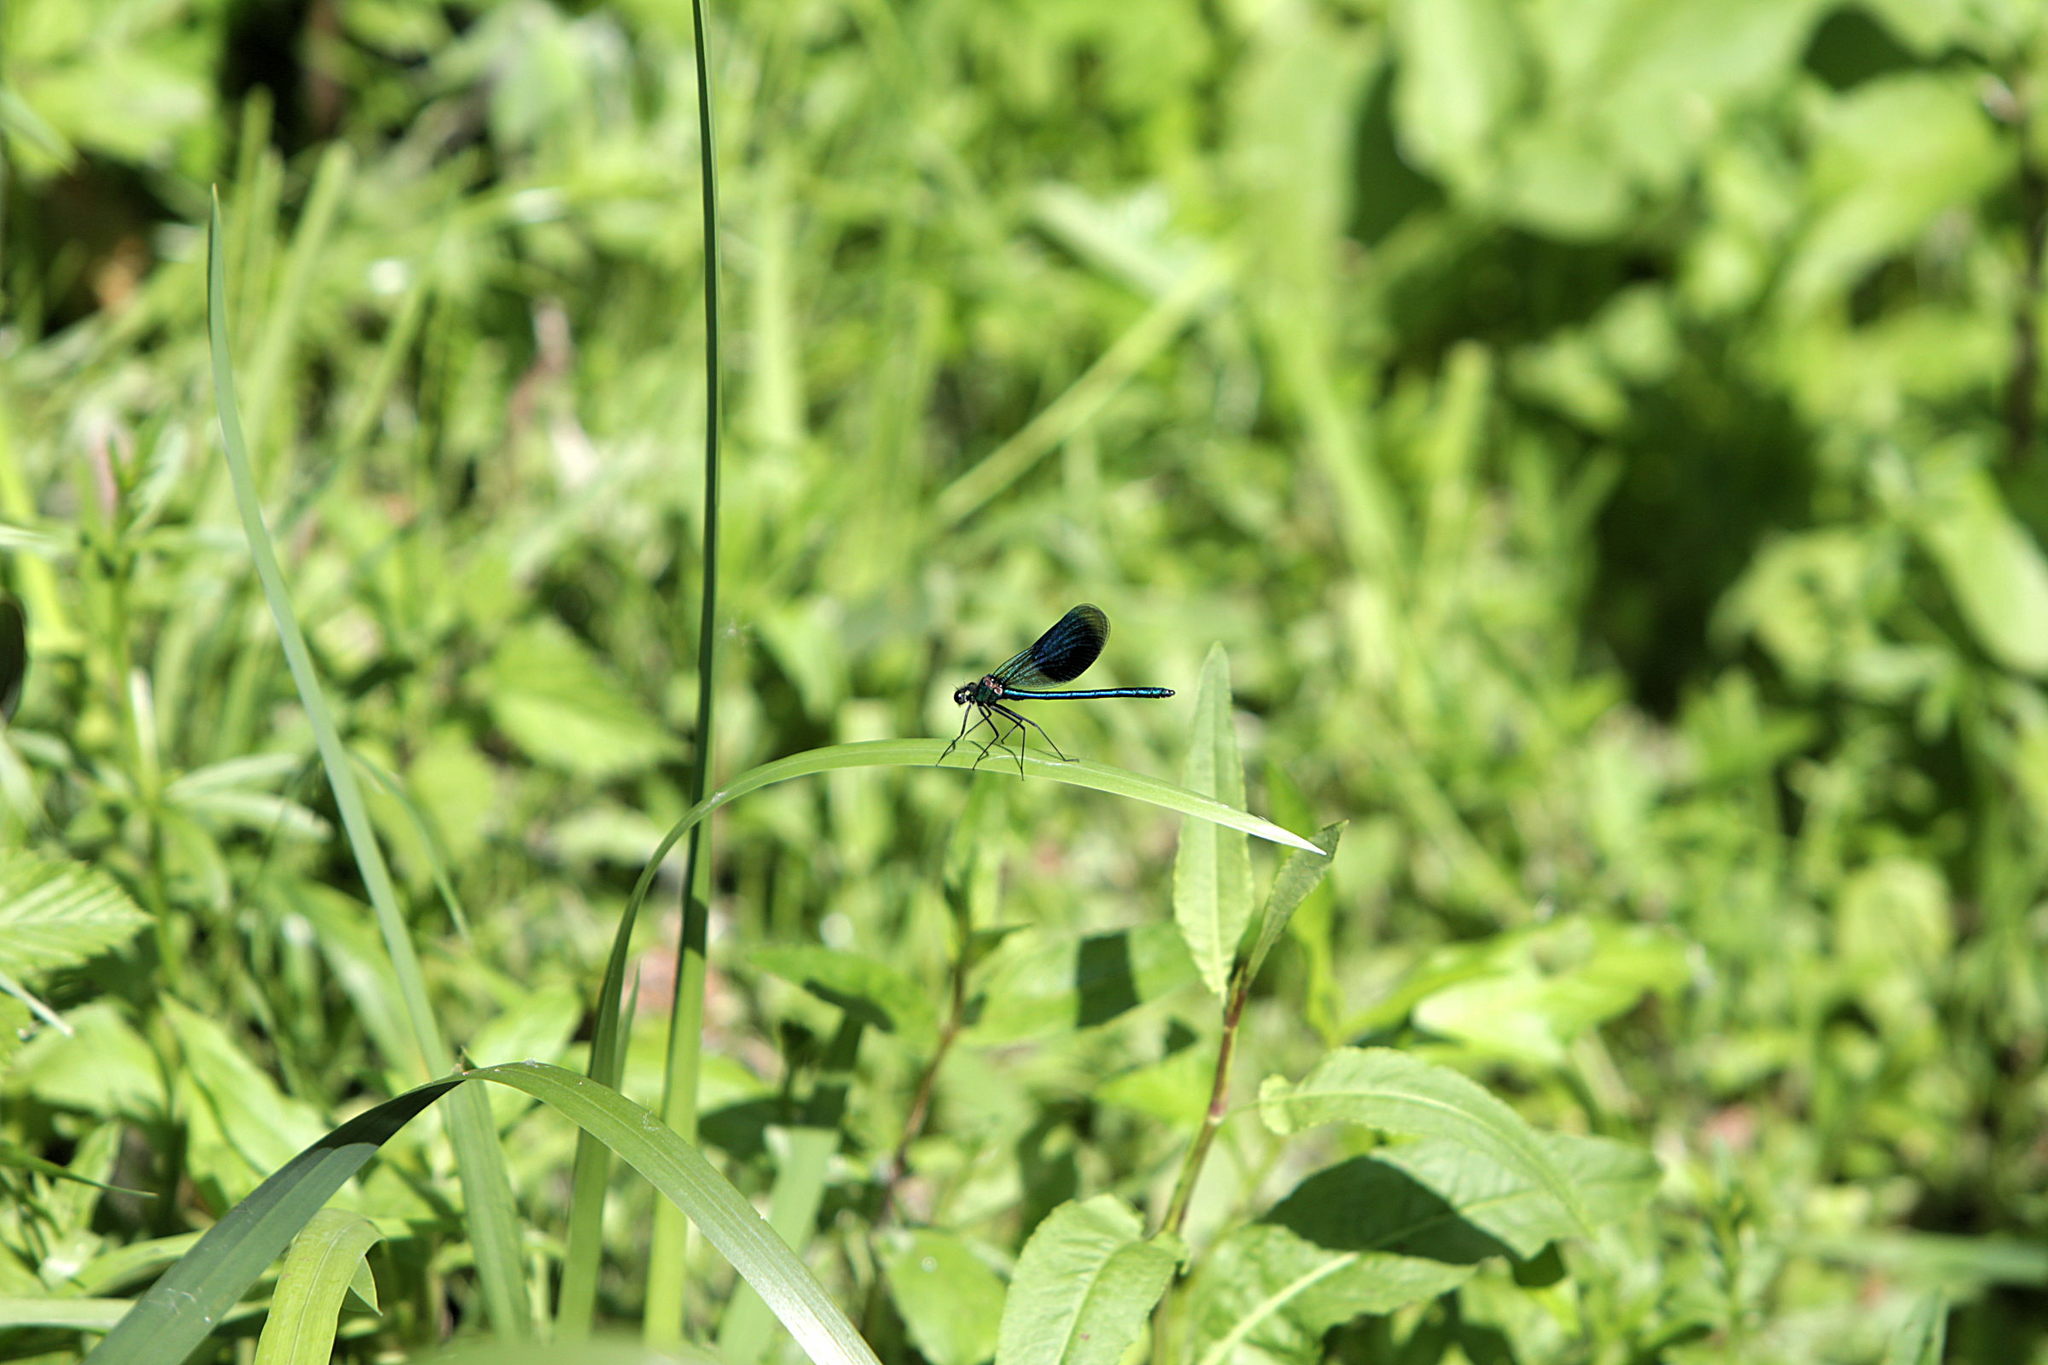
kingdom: Animalia
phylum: Arthropoda
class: Insecta
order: Odonata
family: Calopterygidae
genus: Calopteryx
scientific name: Calopteryx splendens
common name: Banded demoiselle
